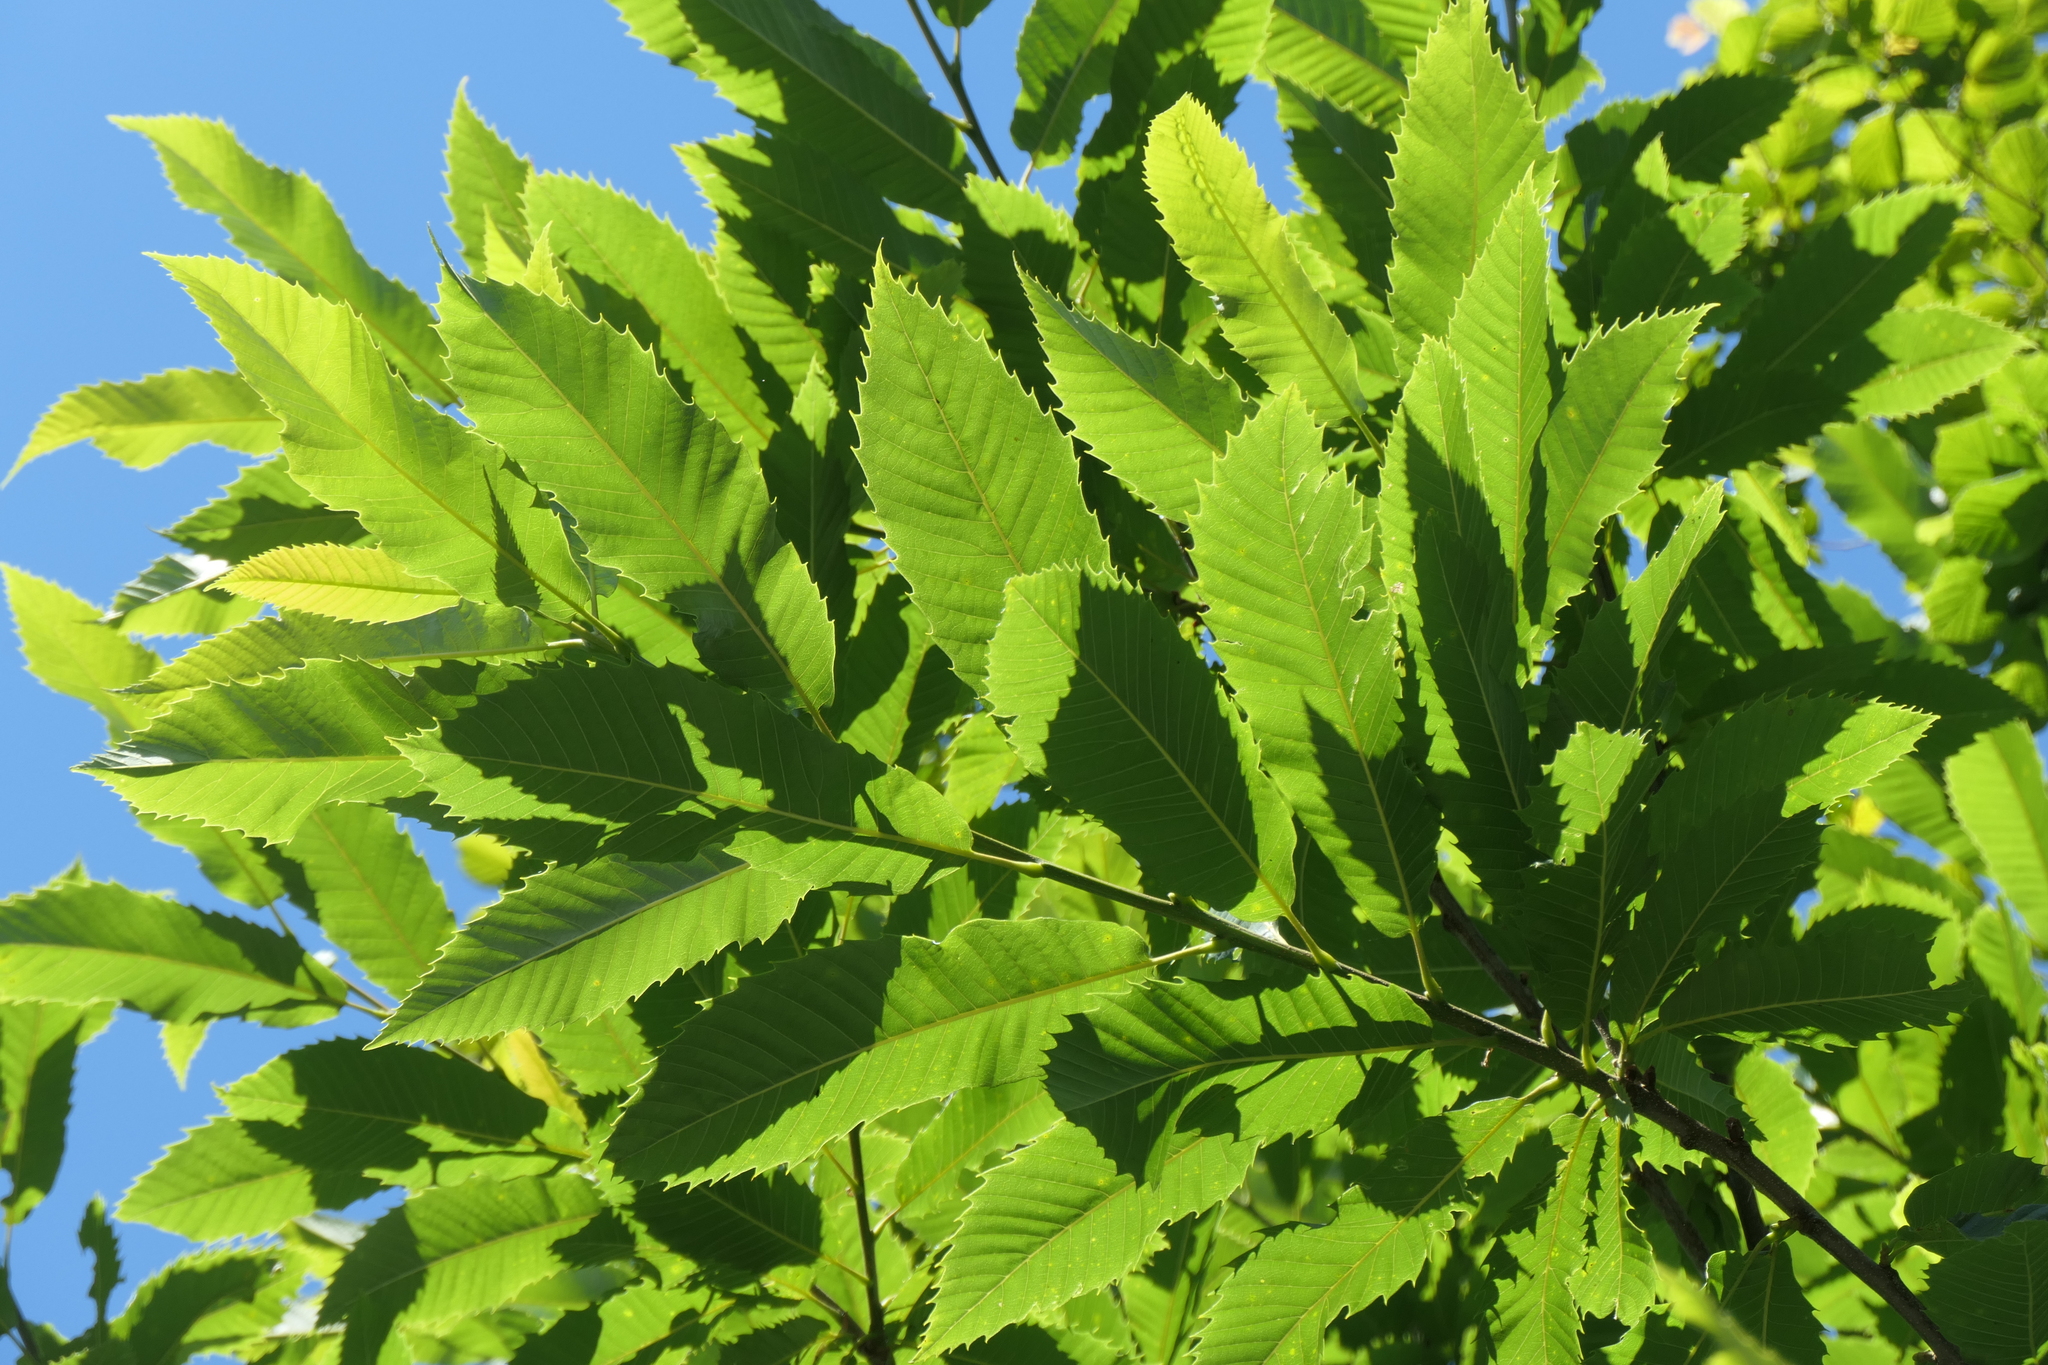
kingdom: Plantae
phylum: Tracheophyta
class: Magnoliopsida
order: Fagales
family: Fagaceae
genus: Castanea
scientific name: Castanea sativa
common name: Sweet chestnut
